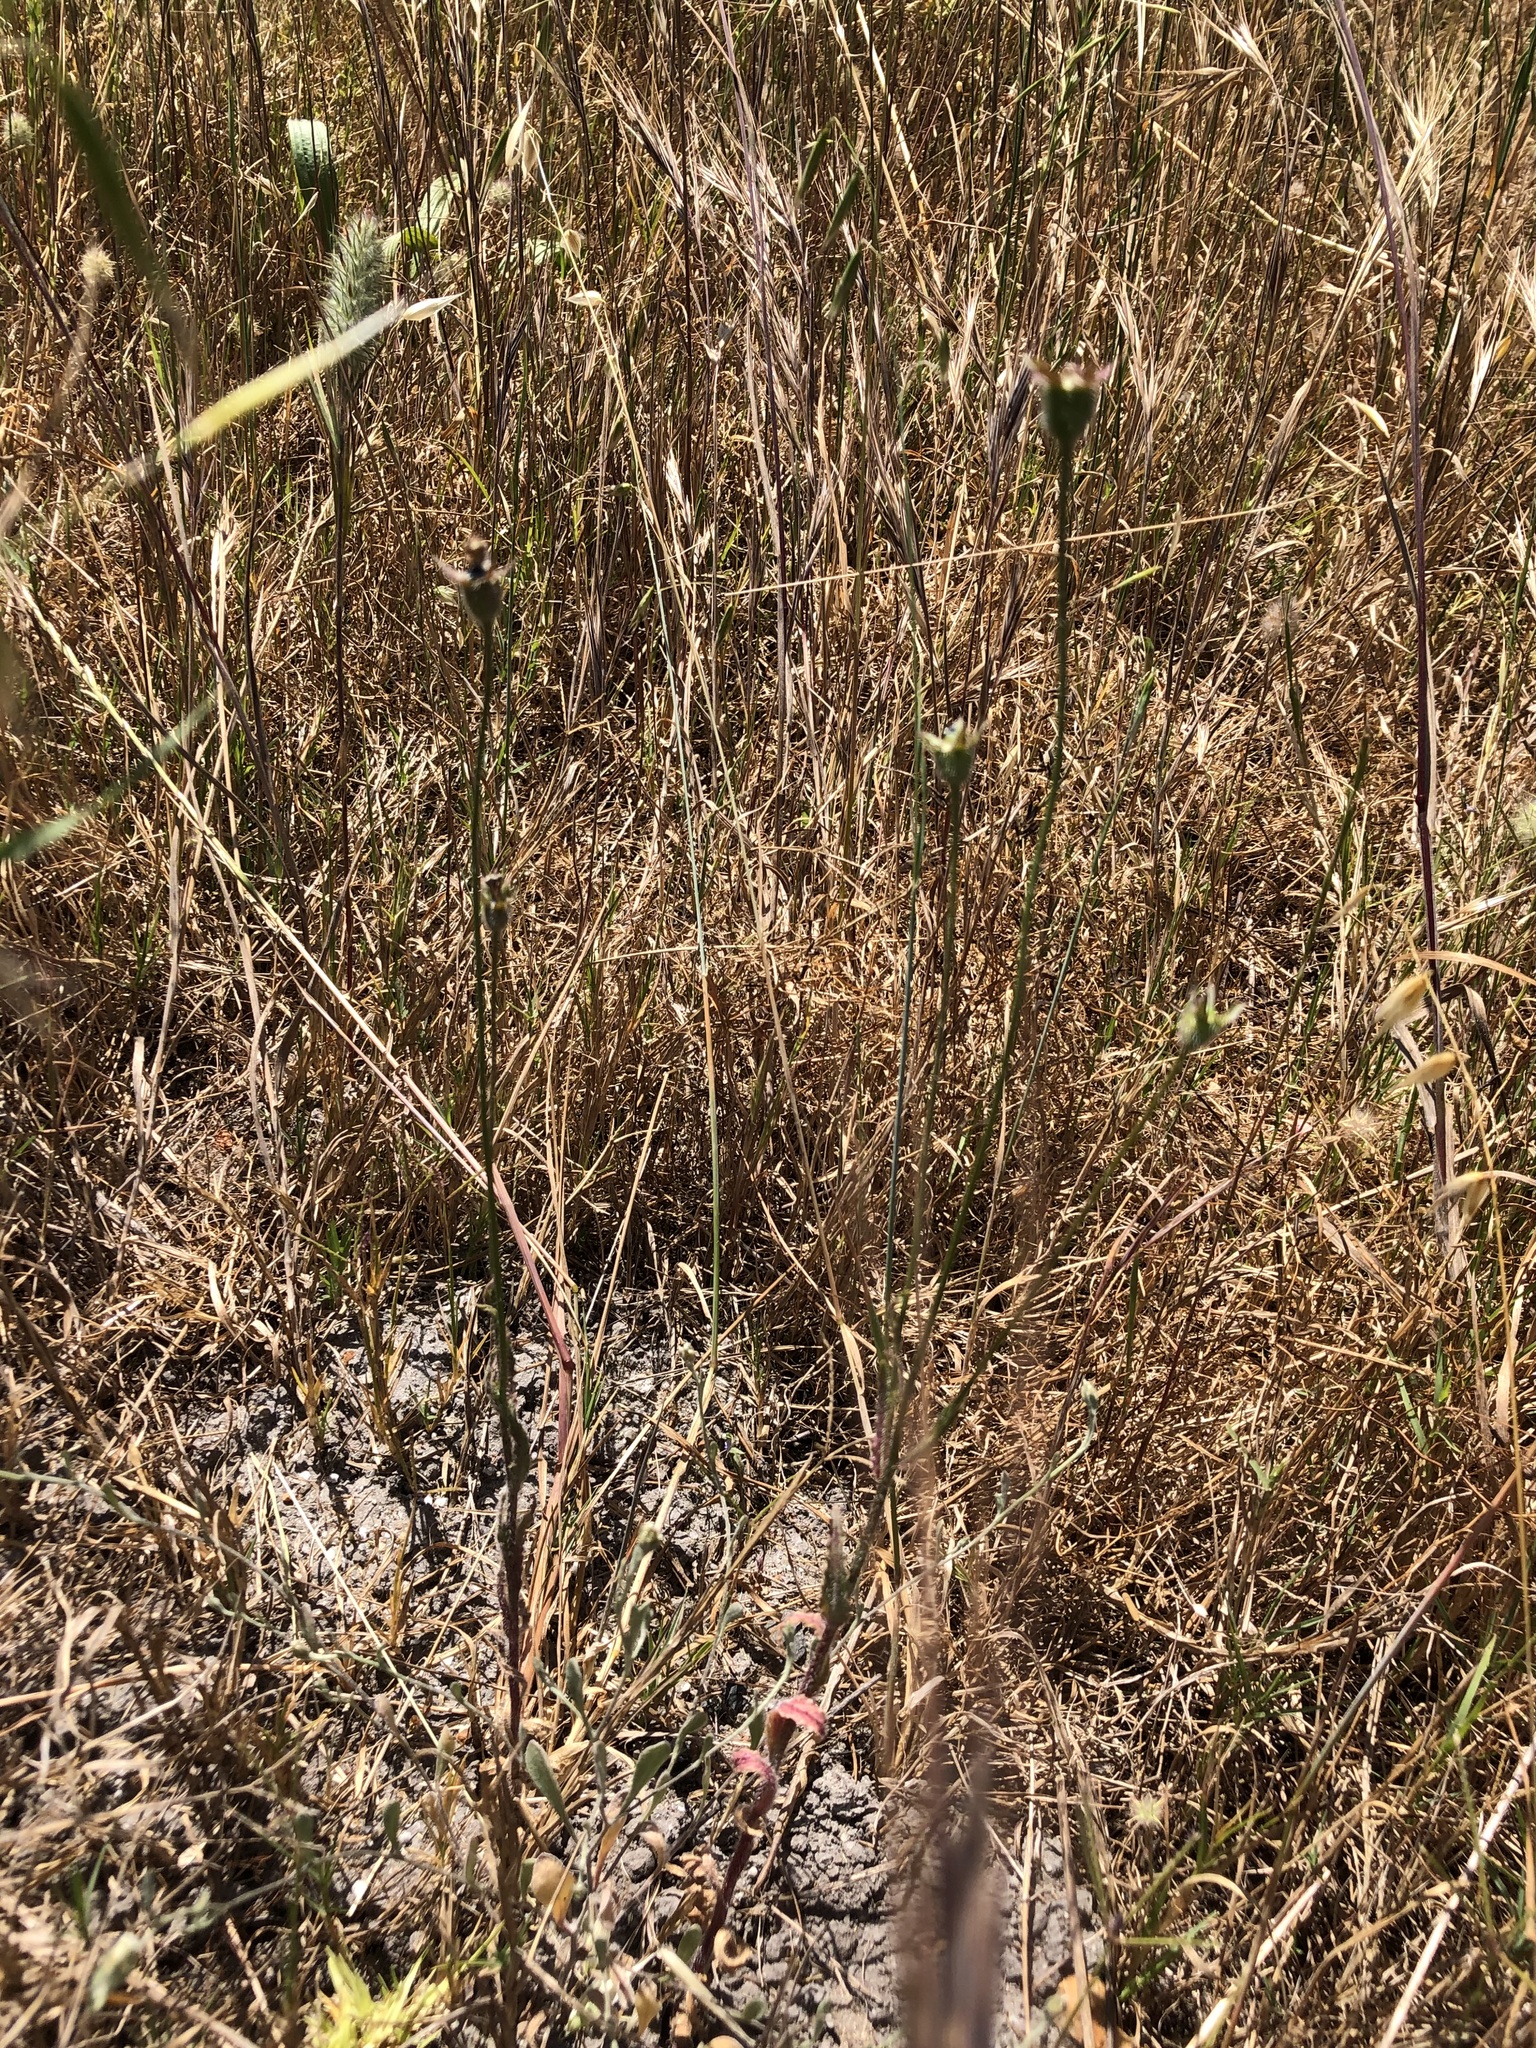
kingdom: Plantae
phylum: Tracheophyta
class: Magnoliopsida
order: Asterales
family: Campanulaceae
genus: Wahlenbergia
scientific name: Wahlenbergia capensis
